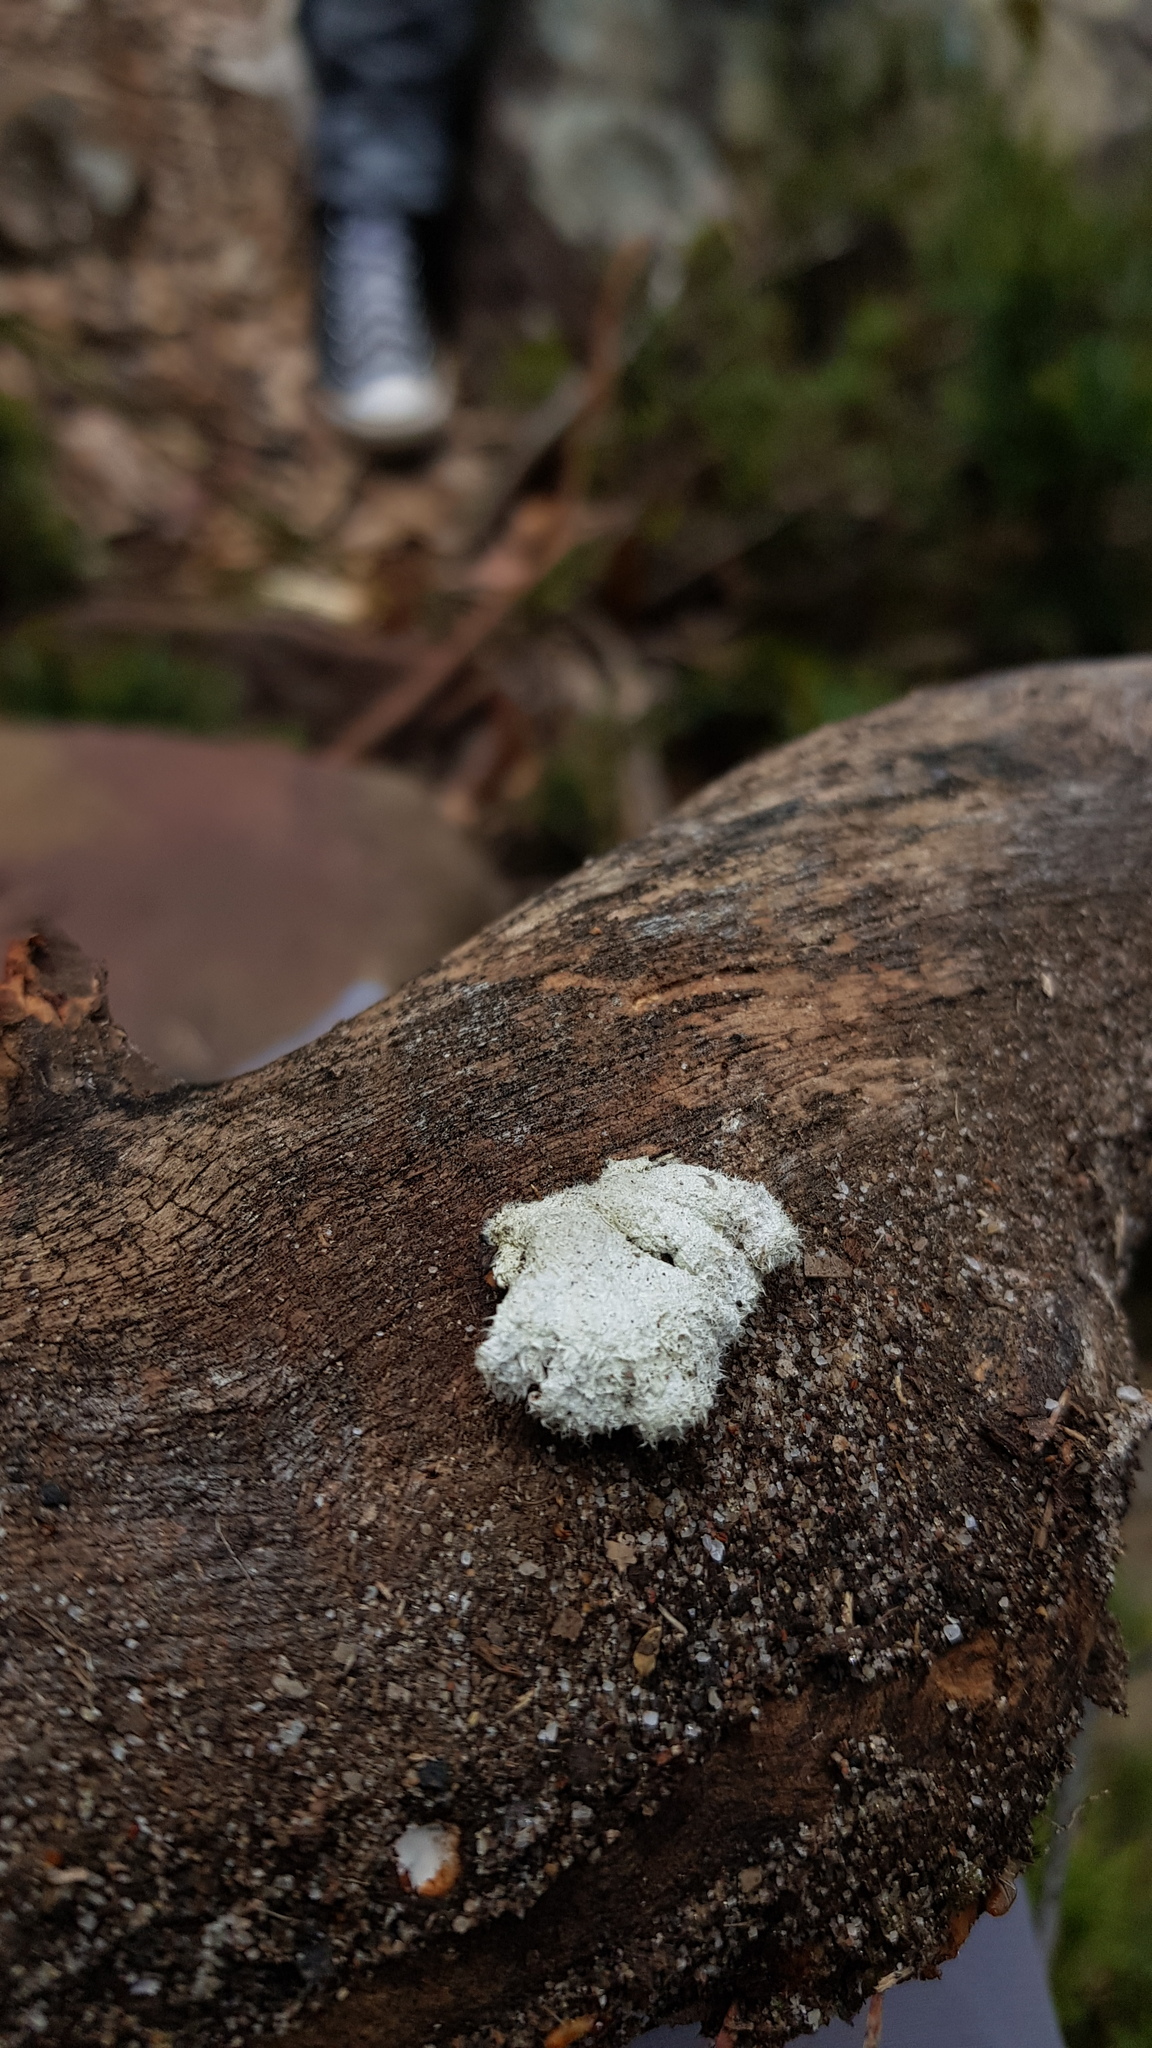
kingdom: Fungi
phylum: Basidiomycota
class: Agaricomycetes
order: Agaricales
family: Schizophyllaceae
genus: Schizophyllum
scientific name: Schizophyllum commune
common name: Common porecrust
